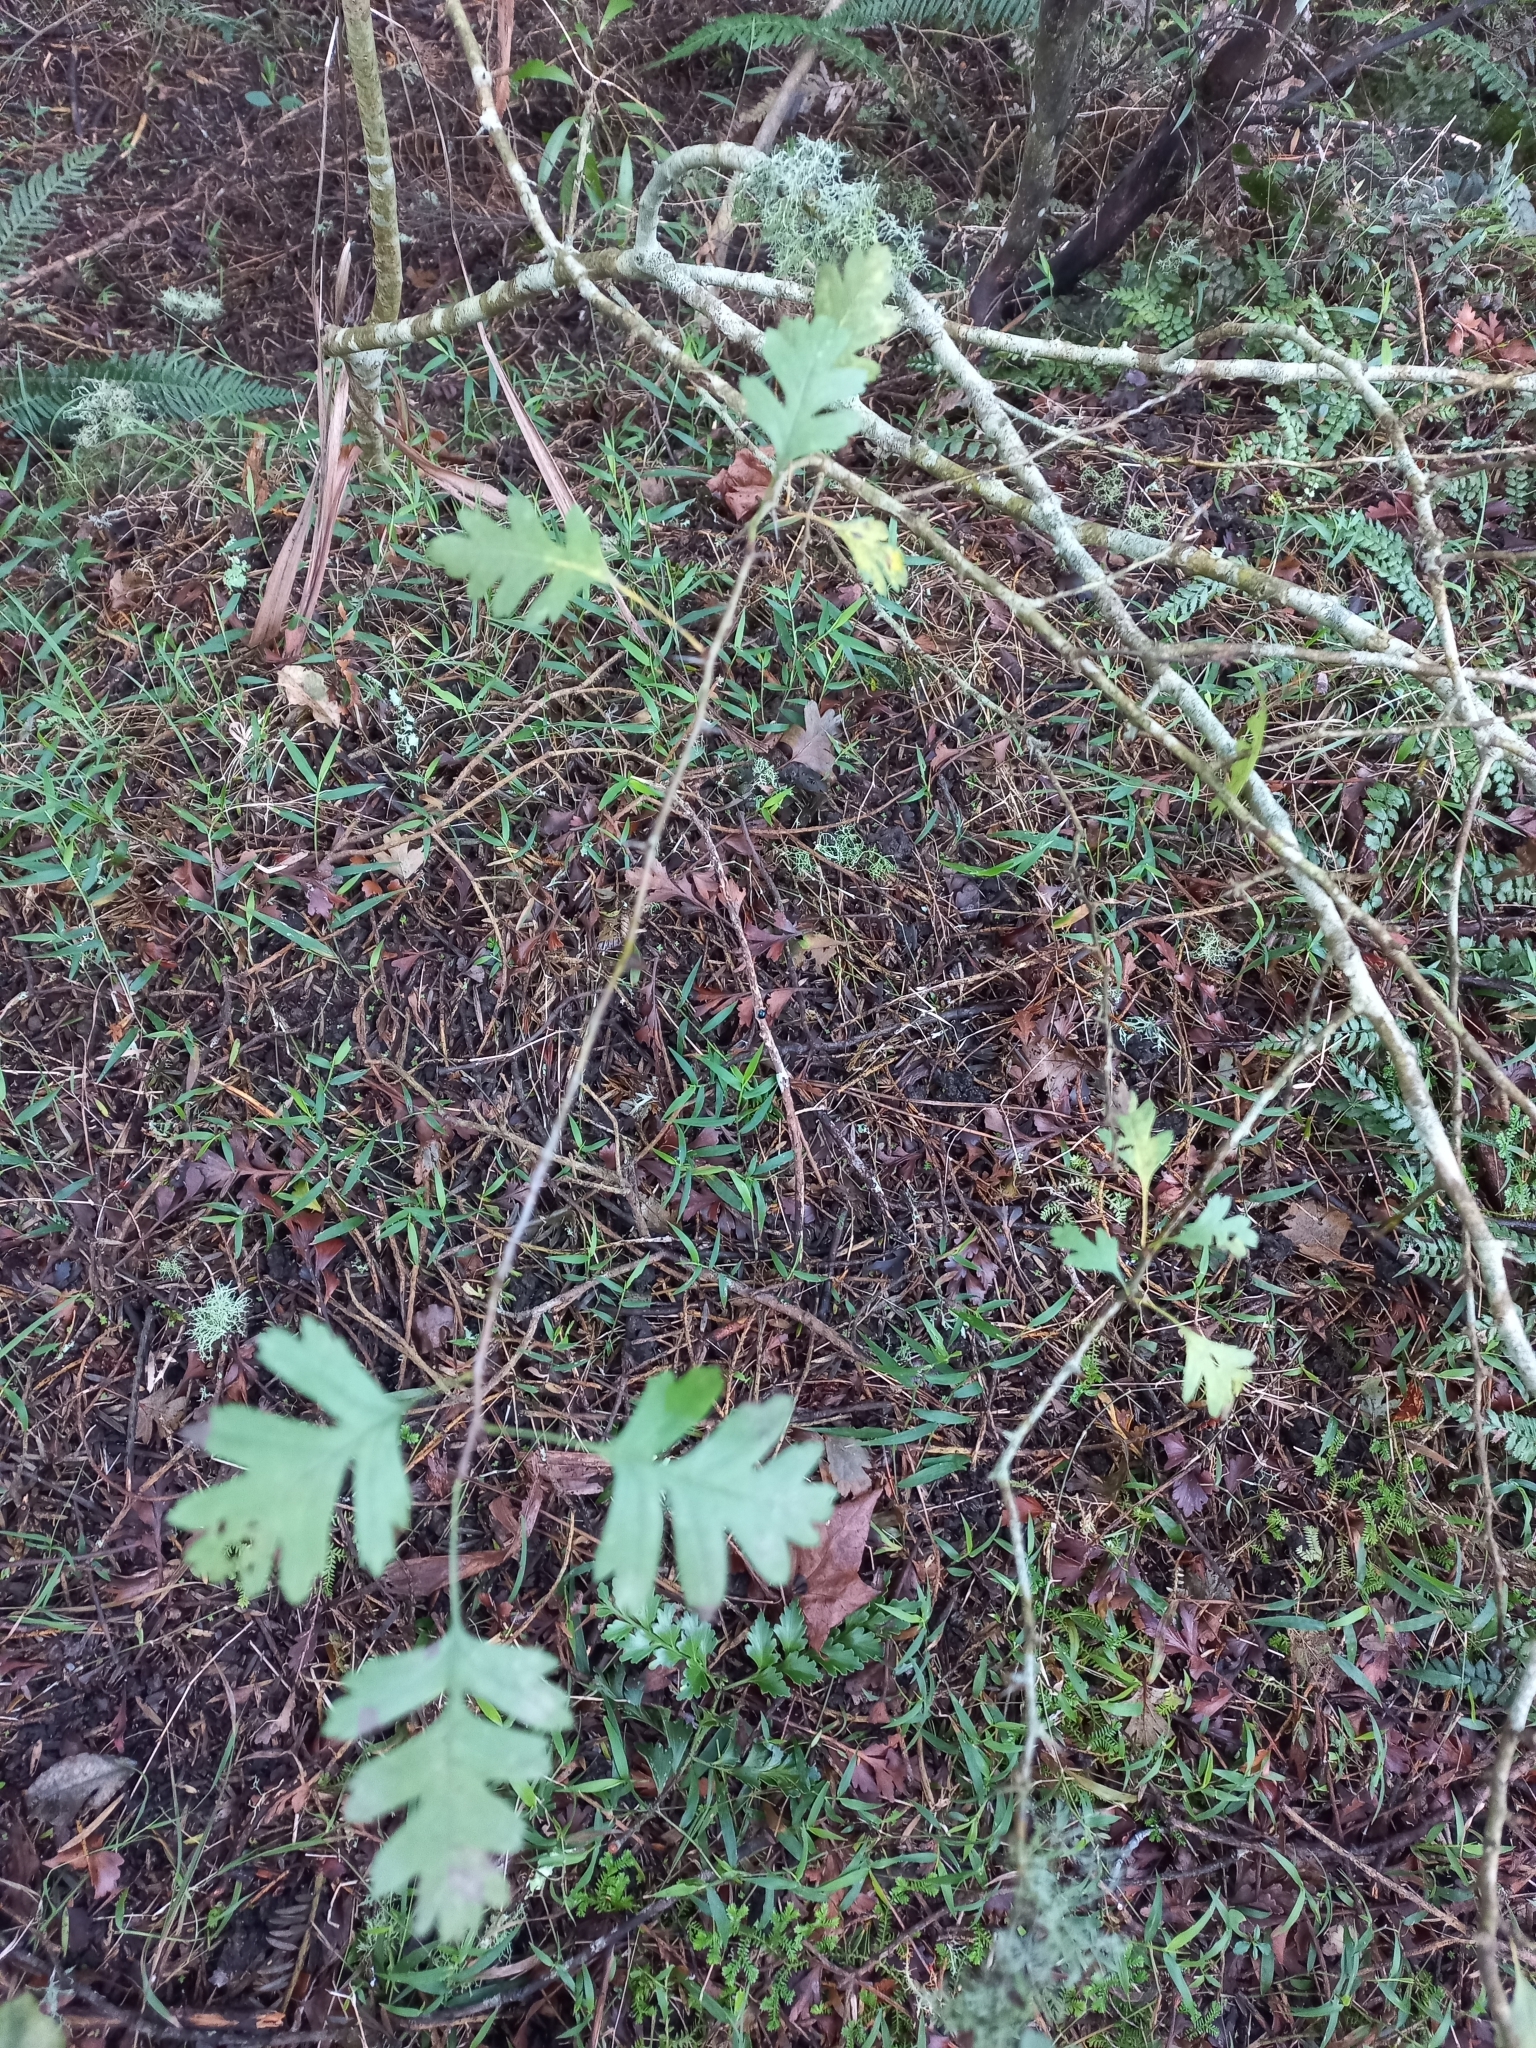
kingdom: Plantae
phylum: Tracheophyta
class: Magnoliopsida
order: Rosales
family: Rosaceae
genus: Crataegus
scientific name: Crataegus monogyna
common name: Hawthorn
